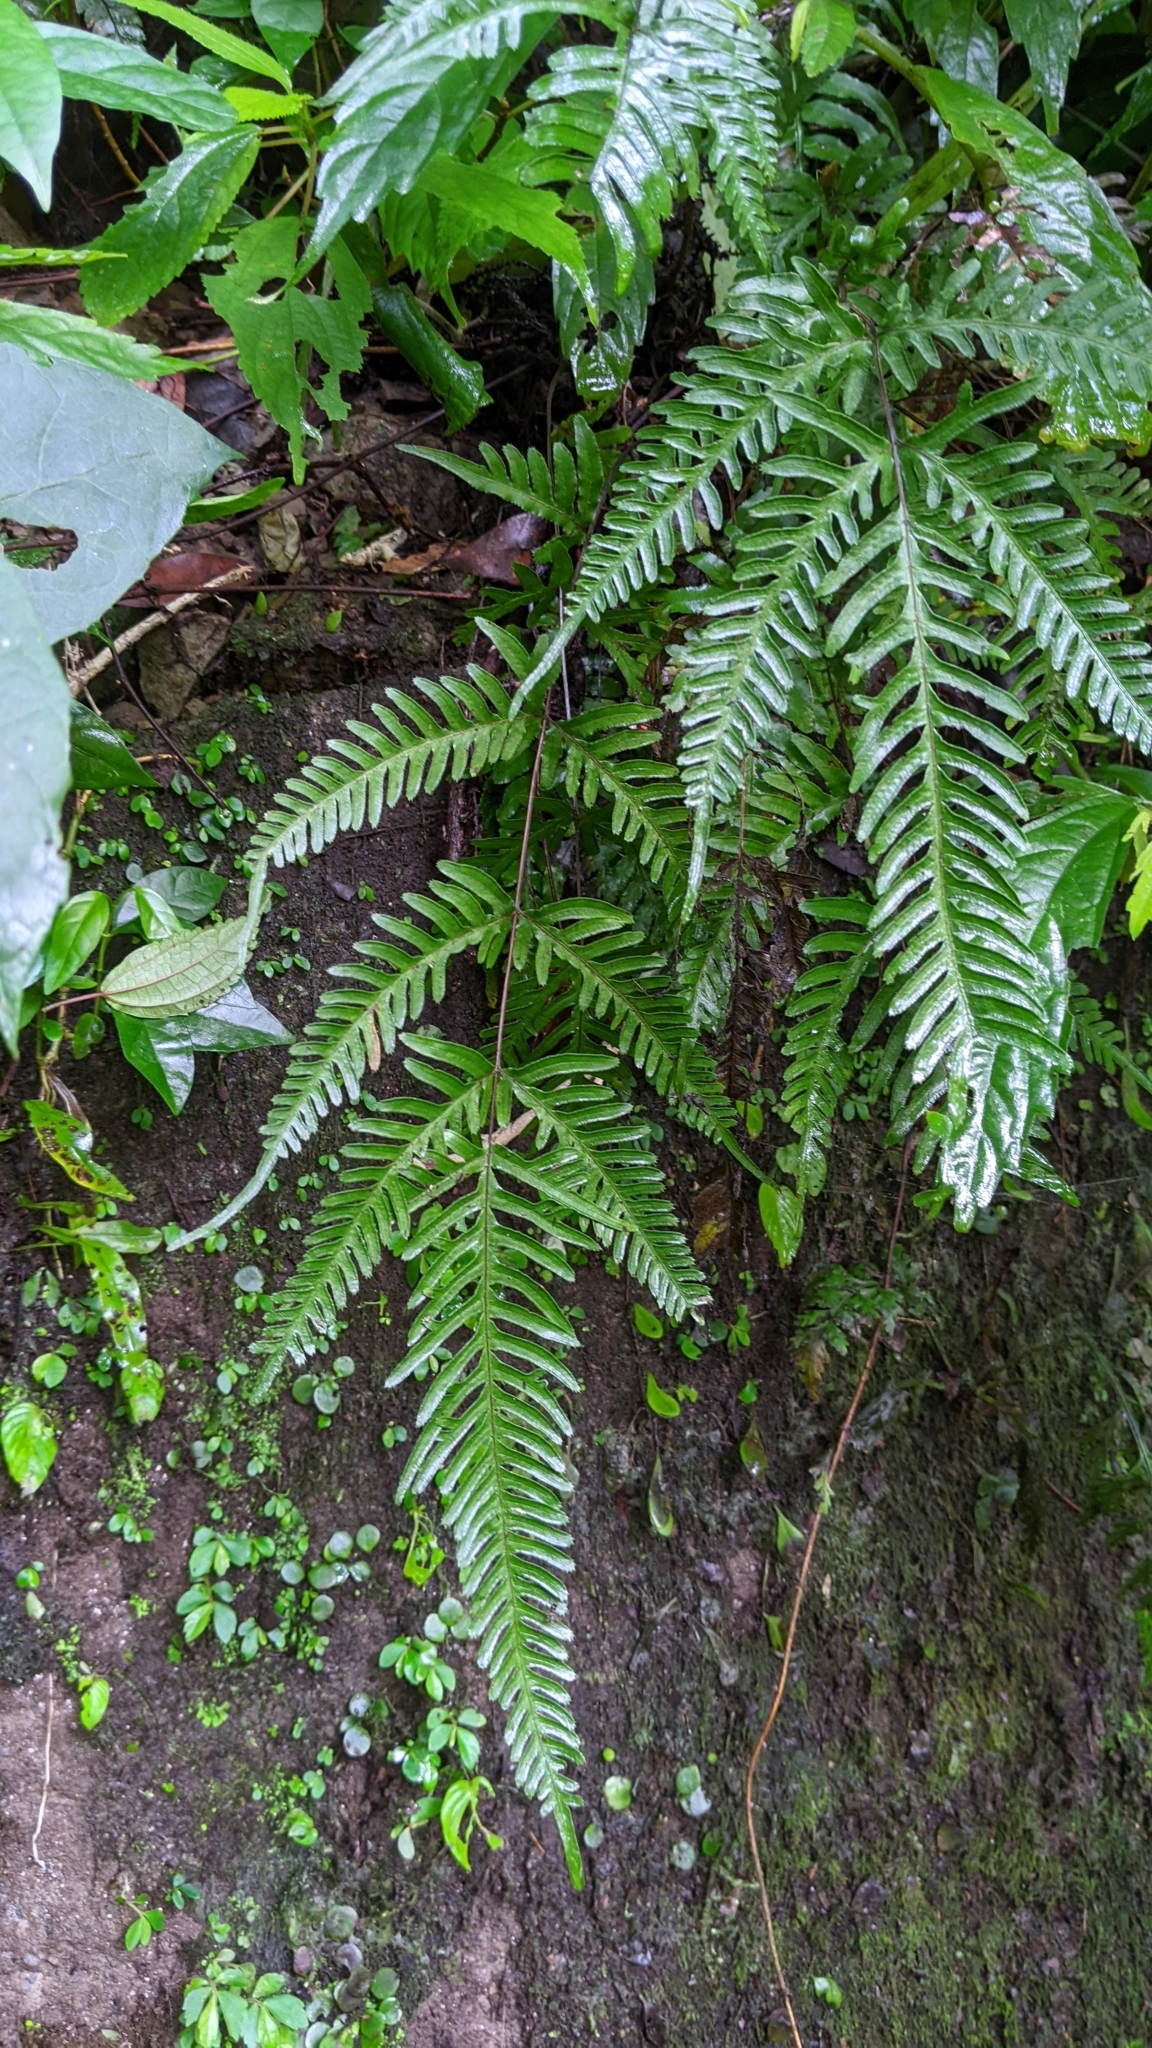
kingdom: Plantae
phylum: Tracheophyta
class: Polypodiopsida
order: Polypodiales
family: Pteridaceae
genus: Pteris
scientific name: Pteris dispar
